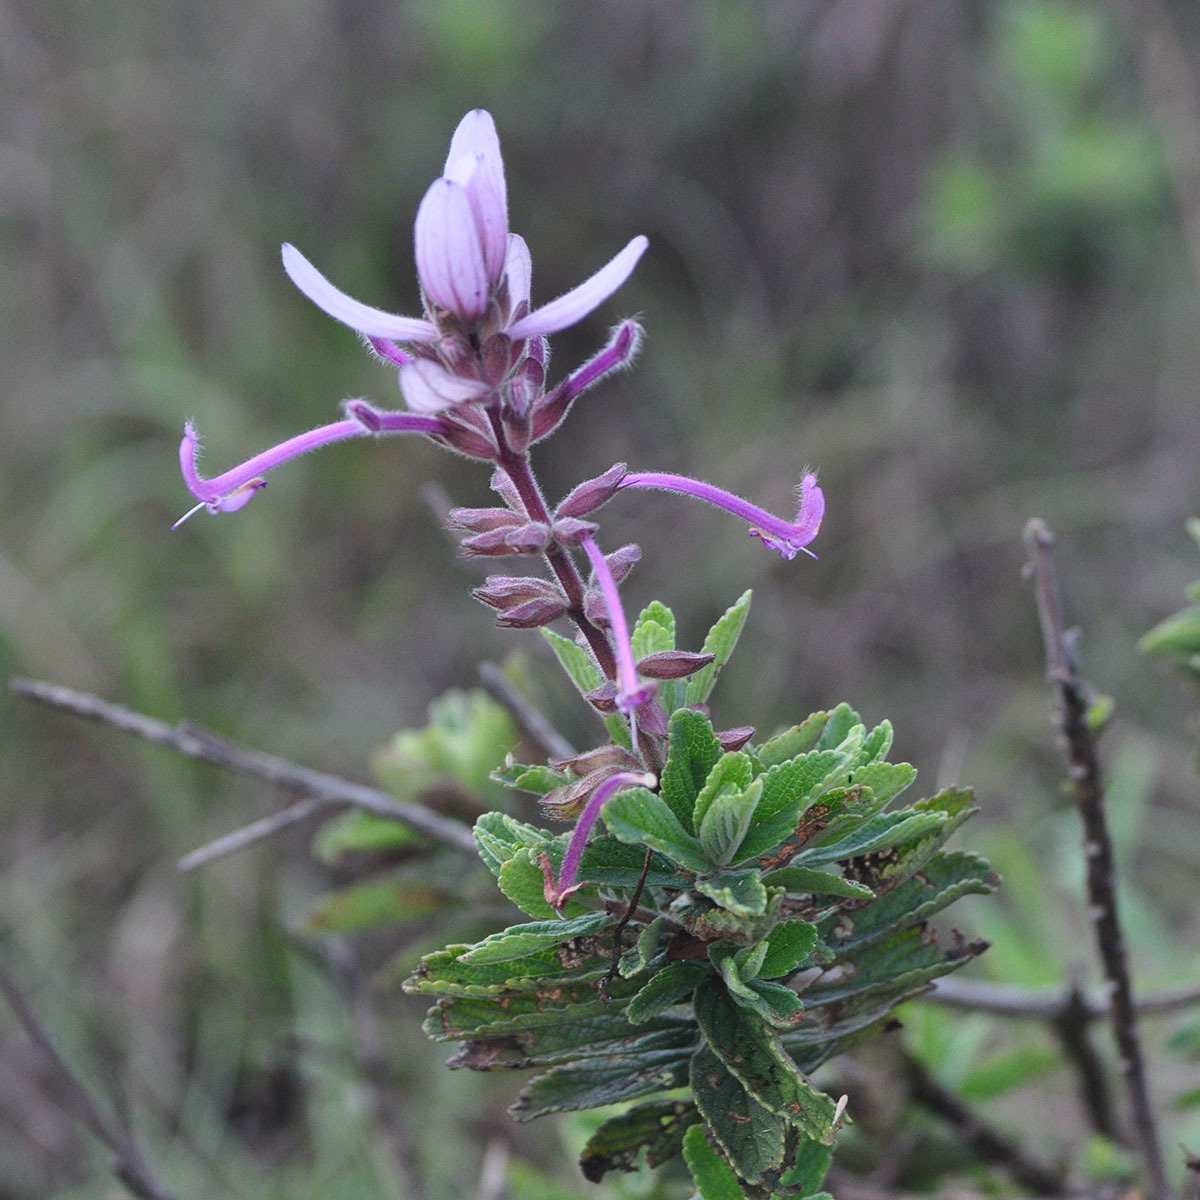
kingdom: Plantae
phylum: Tracheophyta
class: Magnoliopsida
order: Lamiales
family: Lamiaceae
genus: Syncolostemon
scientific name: Syncolostemon comosus
